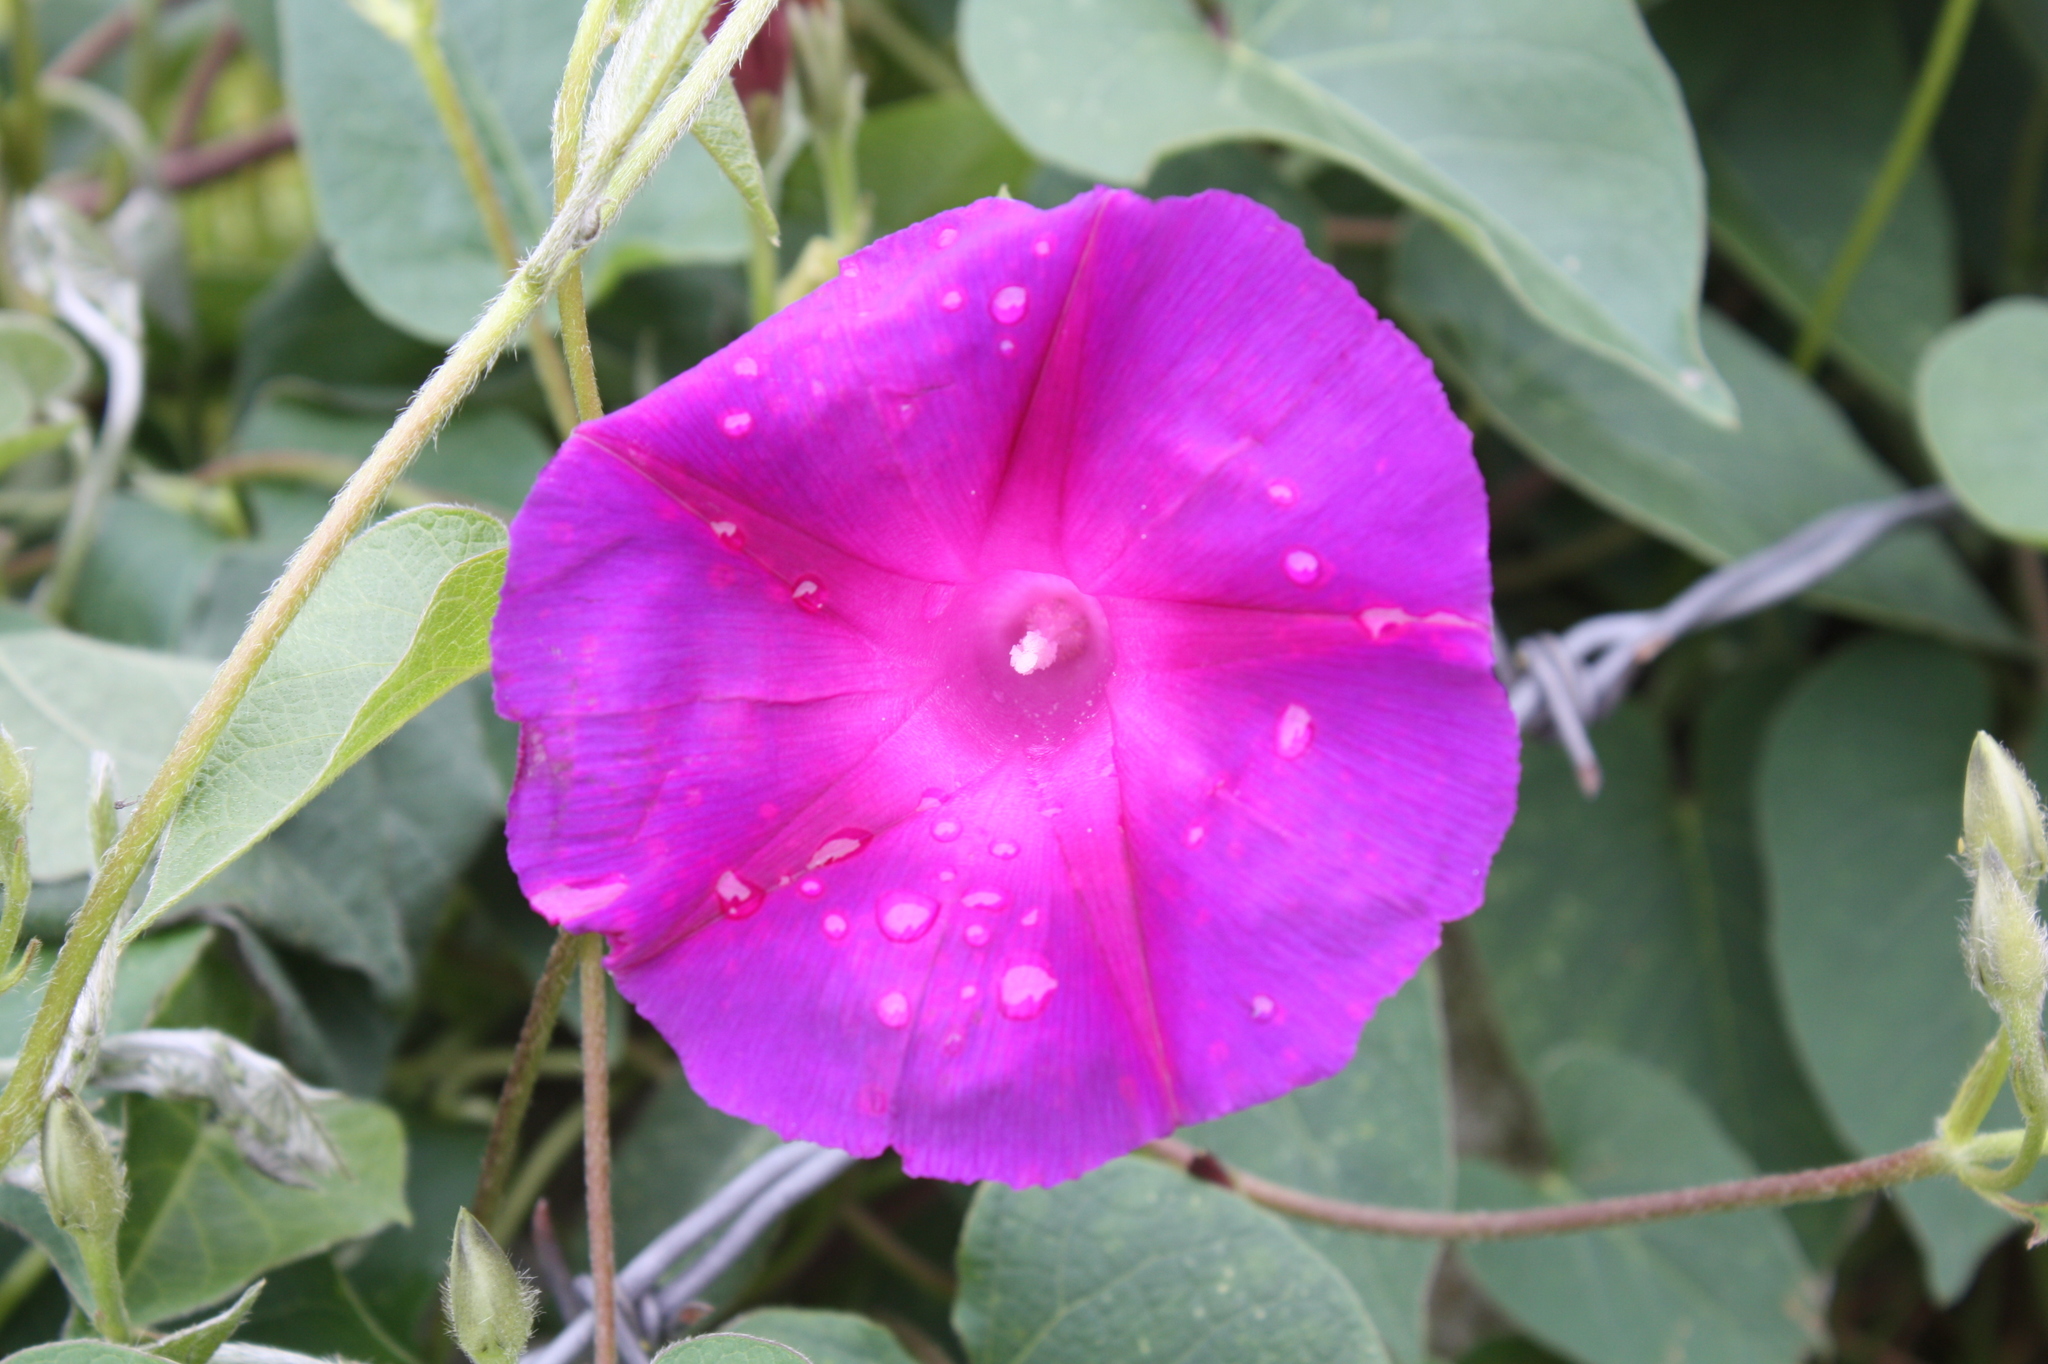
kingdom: Plantae
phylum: Tracheophyta
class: Magnoliopsida
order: Solanales
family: Convolvulaceae
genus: Ipomoea
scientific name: Ipomoea orizabensis
